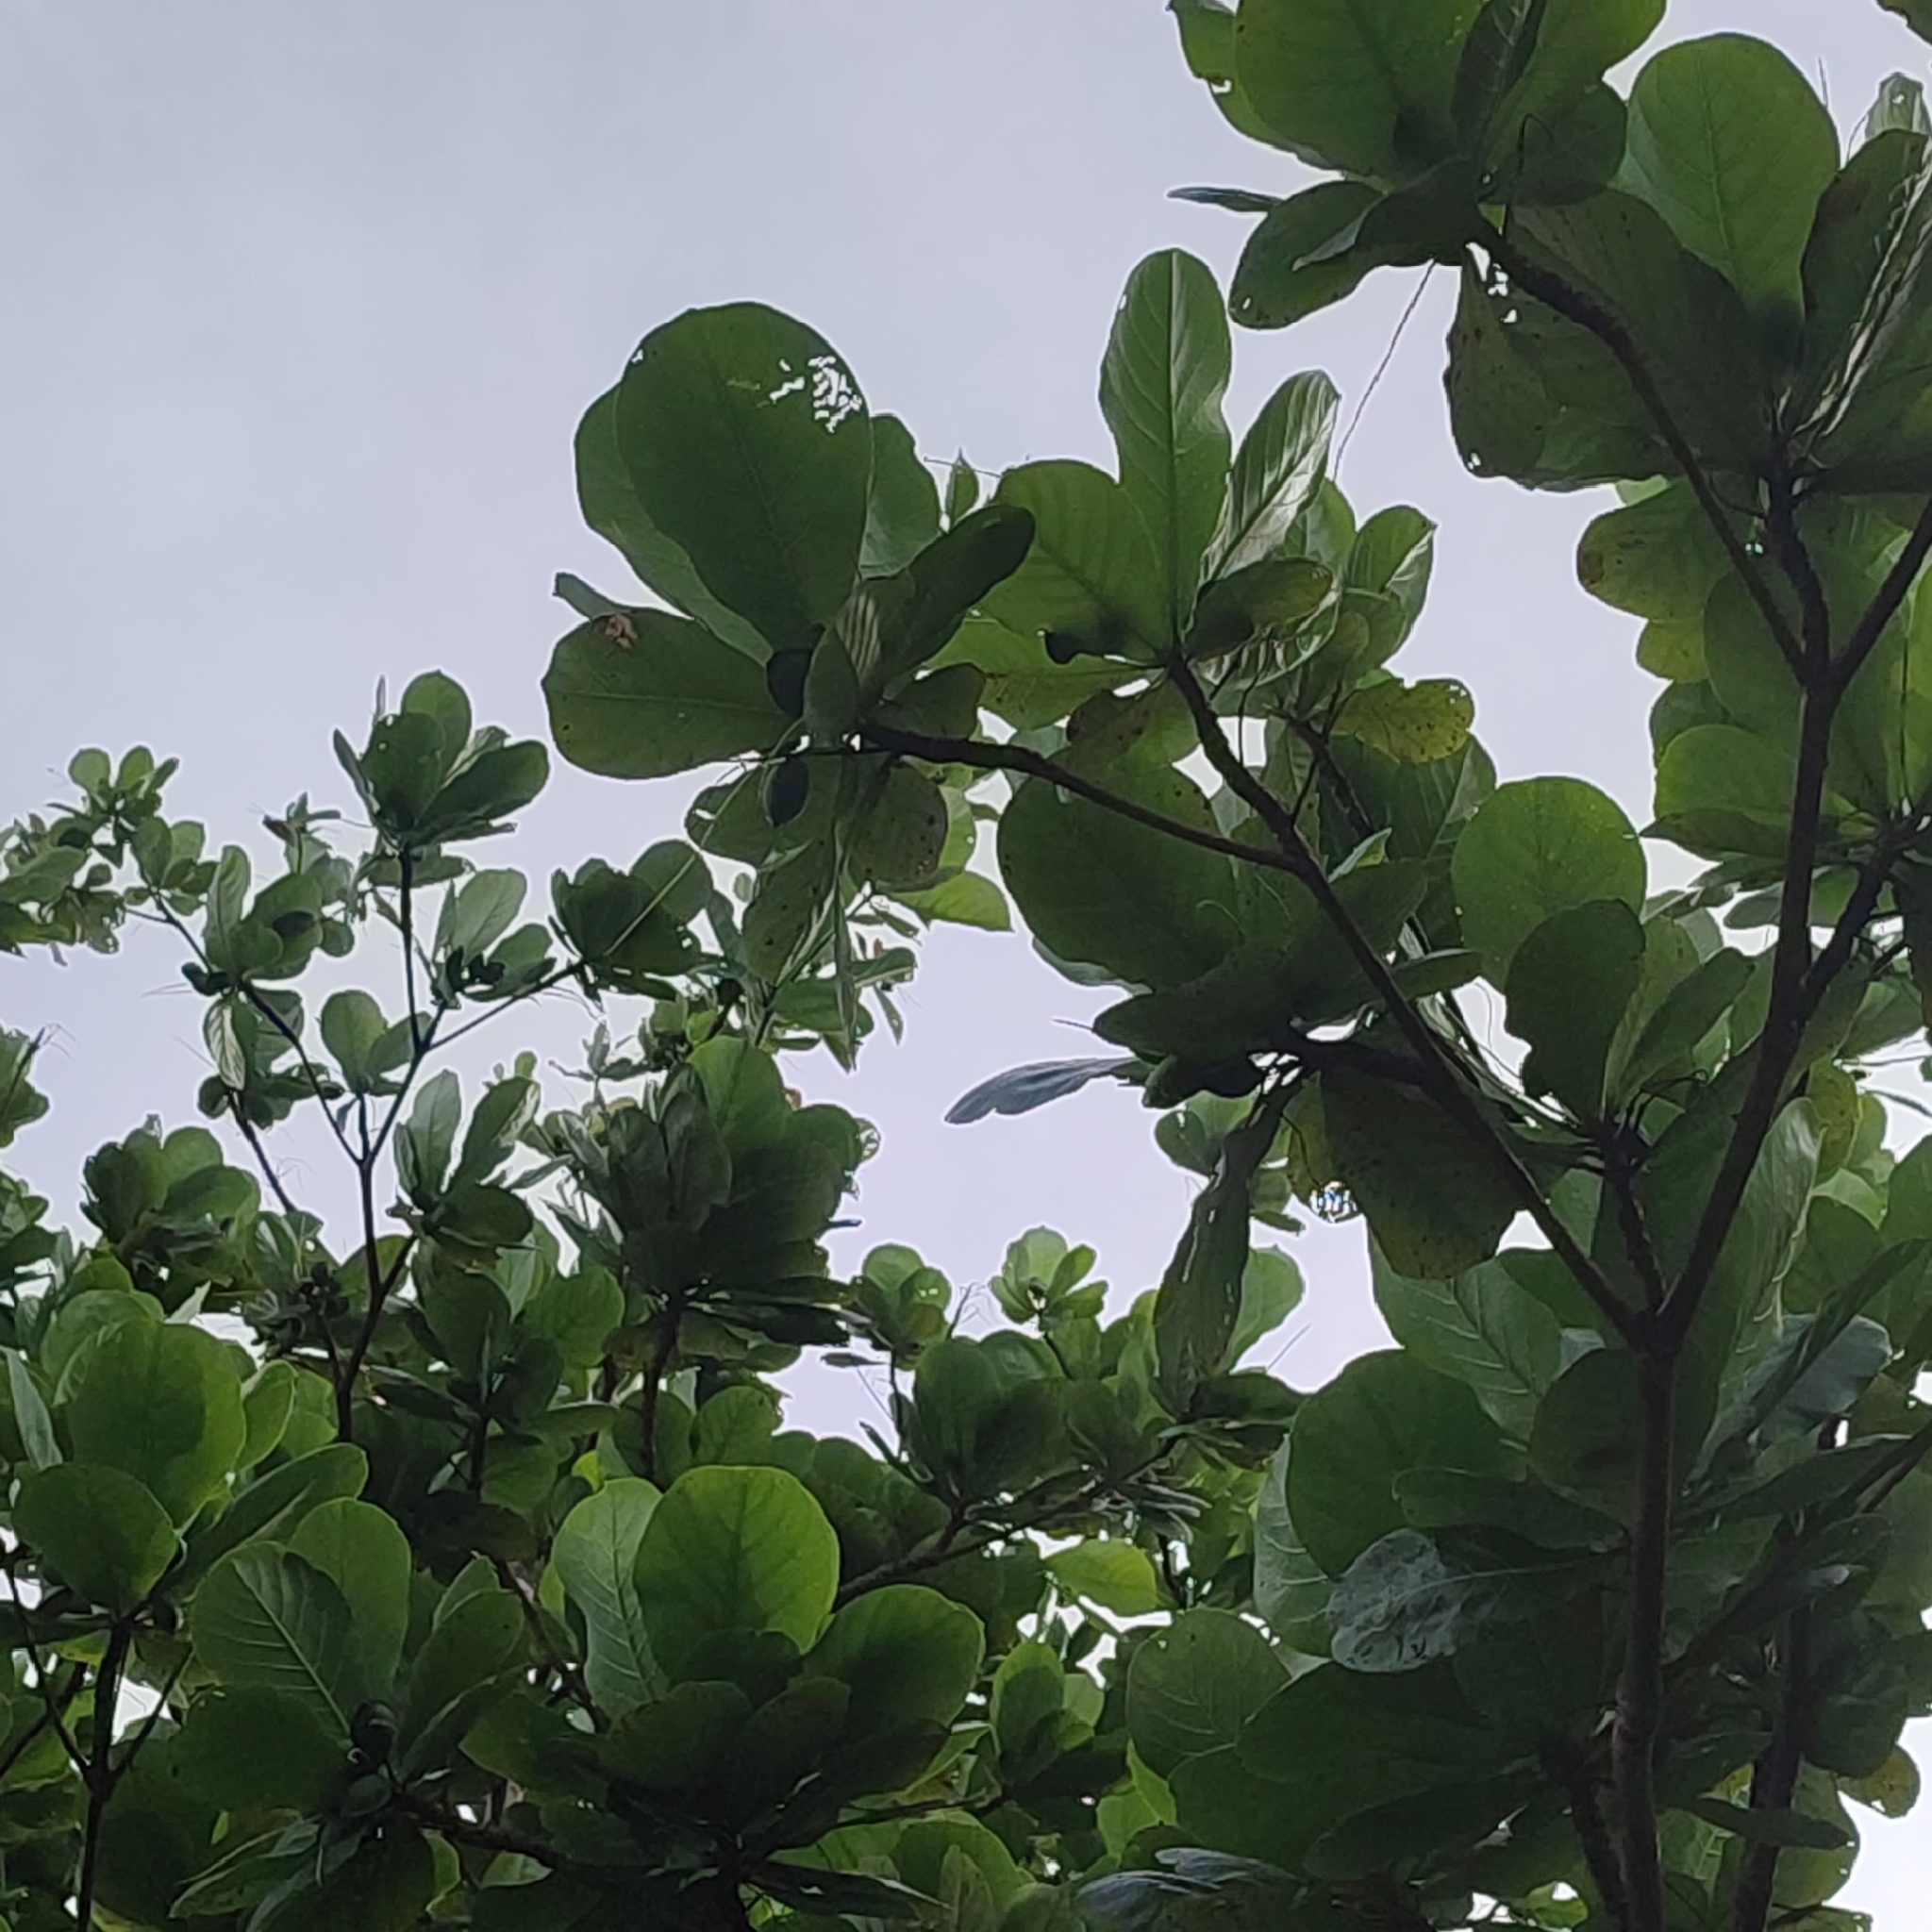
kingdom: Plantae
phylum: Tracheophyta
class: Magnoliopsida
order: Myrtales
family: Combretaceae
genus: Terminalia
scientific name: Terminalia catappa
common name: Tropical almond
